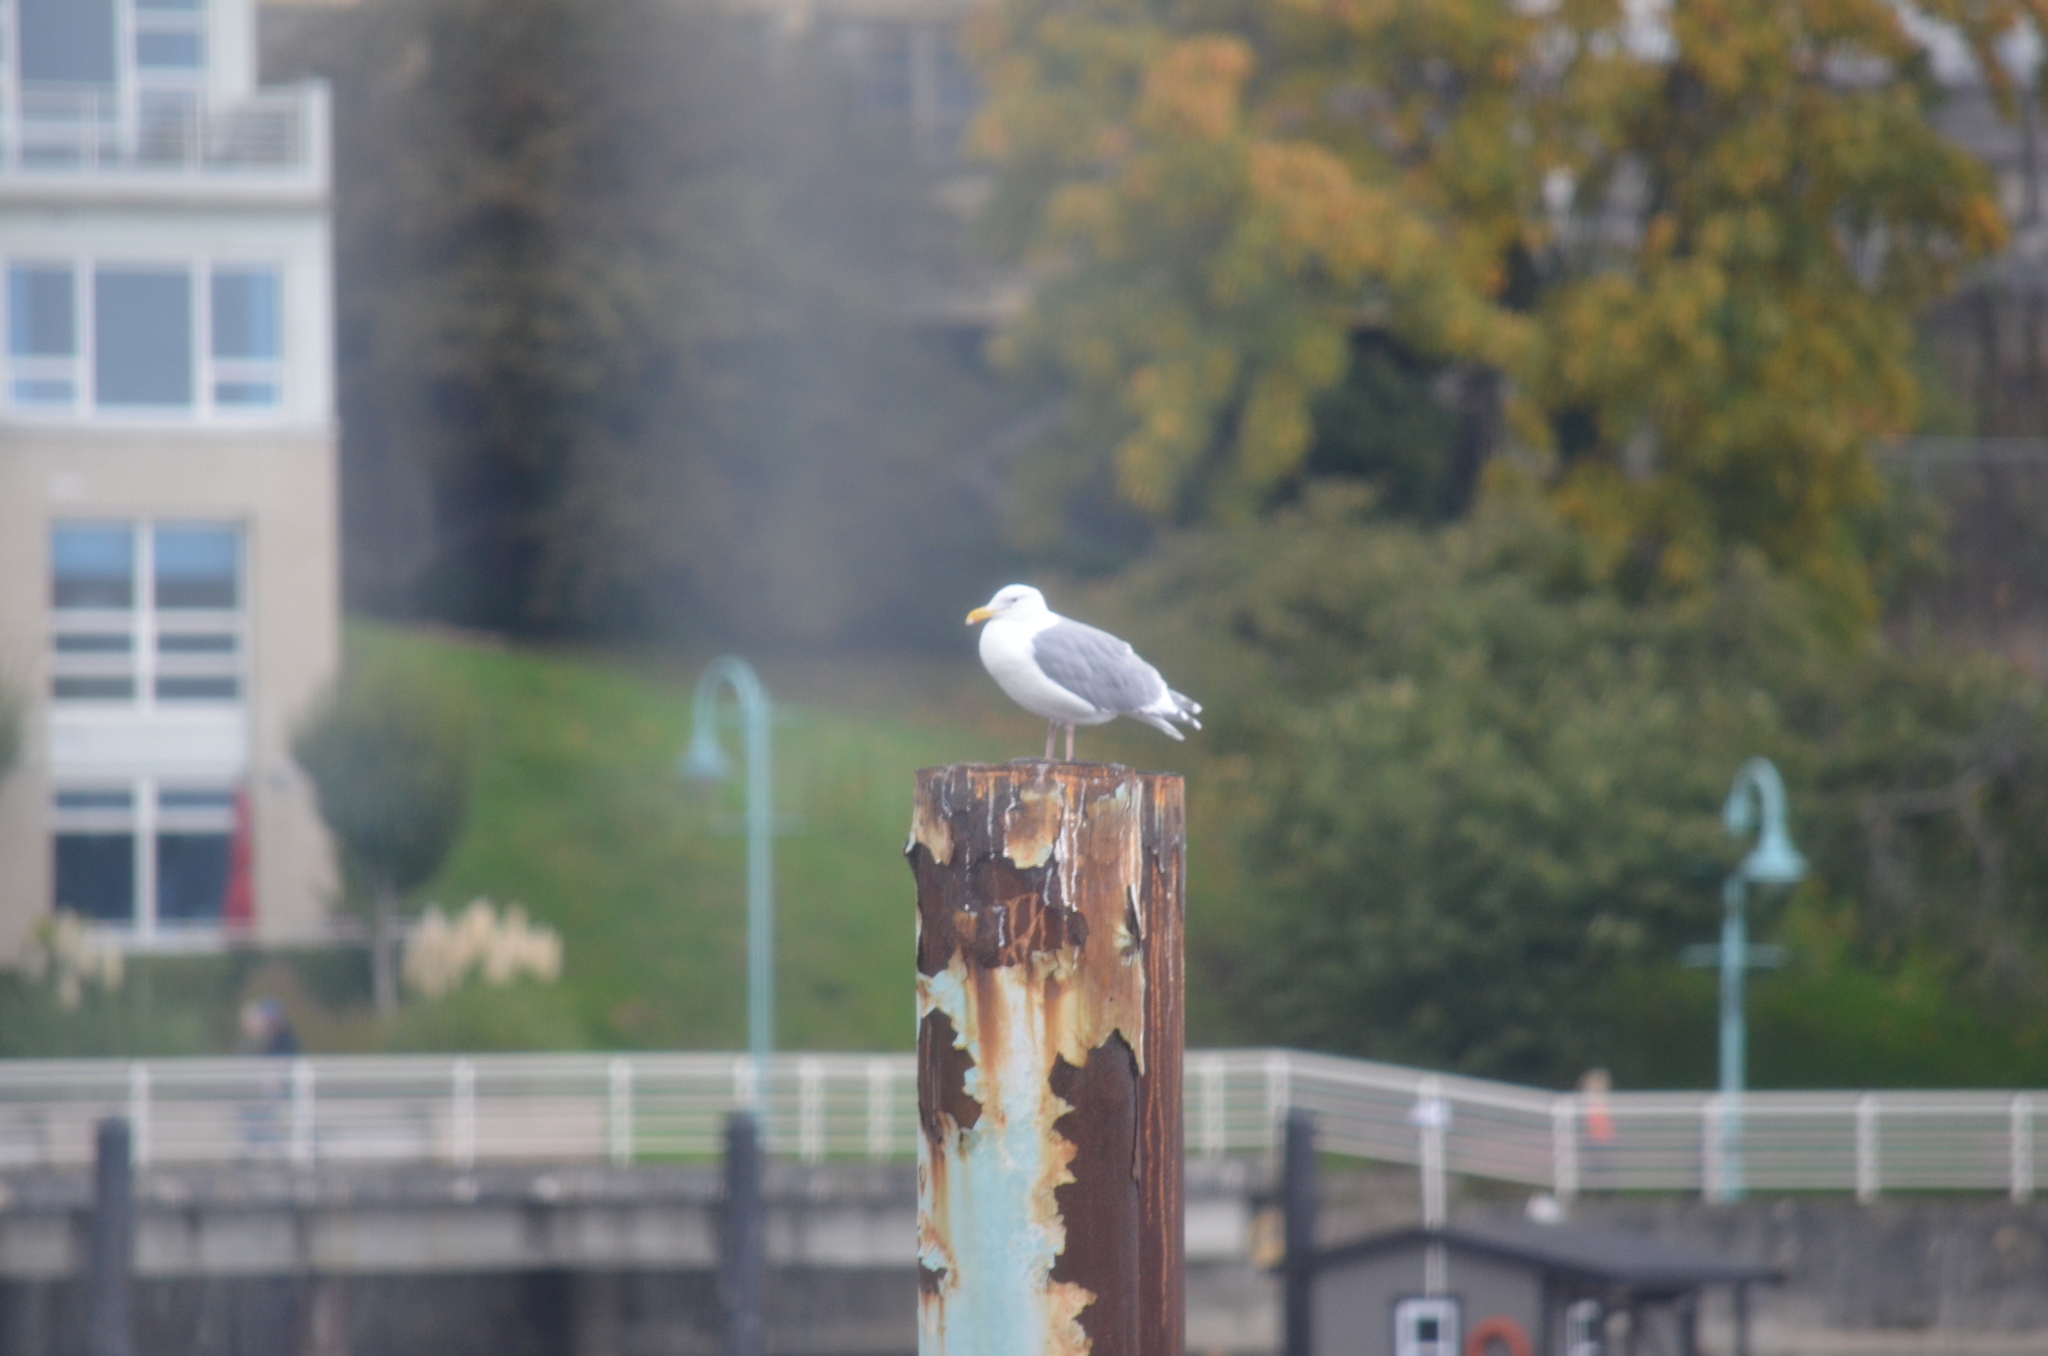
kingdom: Animalia
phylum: Chordata
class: Aves
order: Charadriiformes
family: Laridae
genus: Larus
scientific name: Larus glaucescens
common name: Glaucous-winged gull
